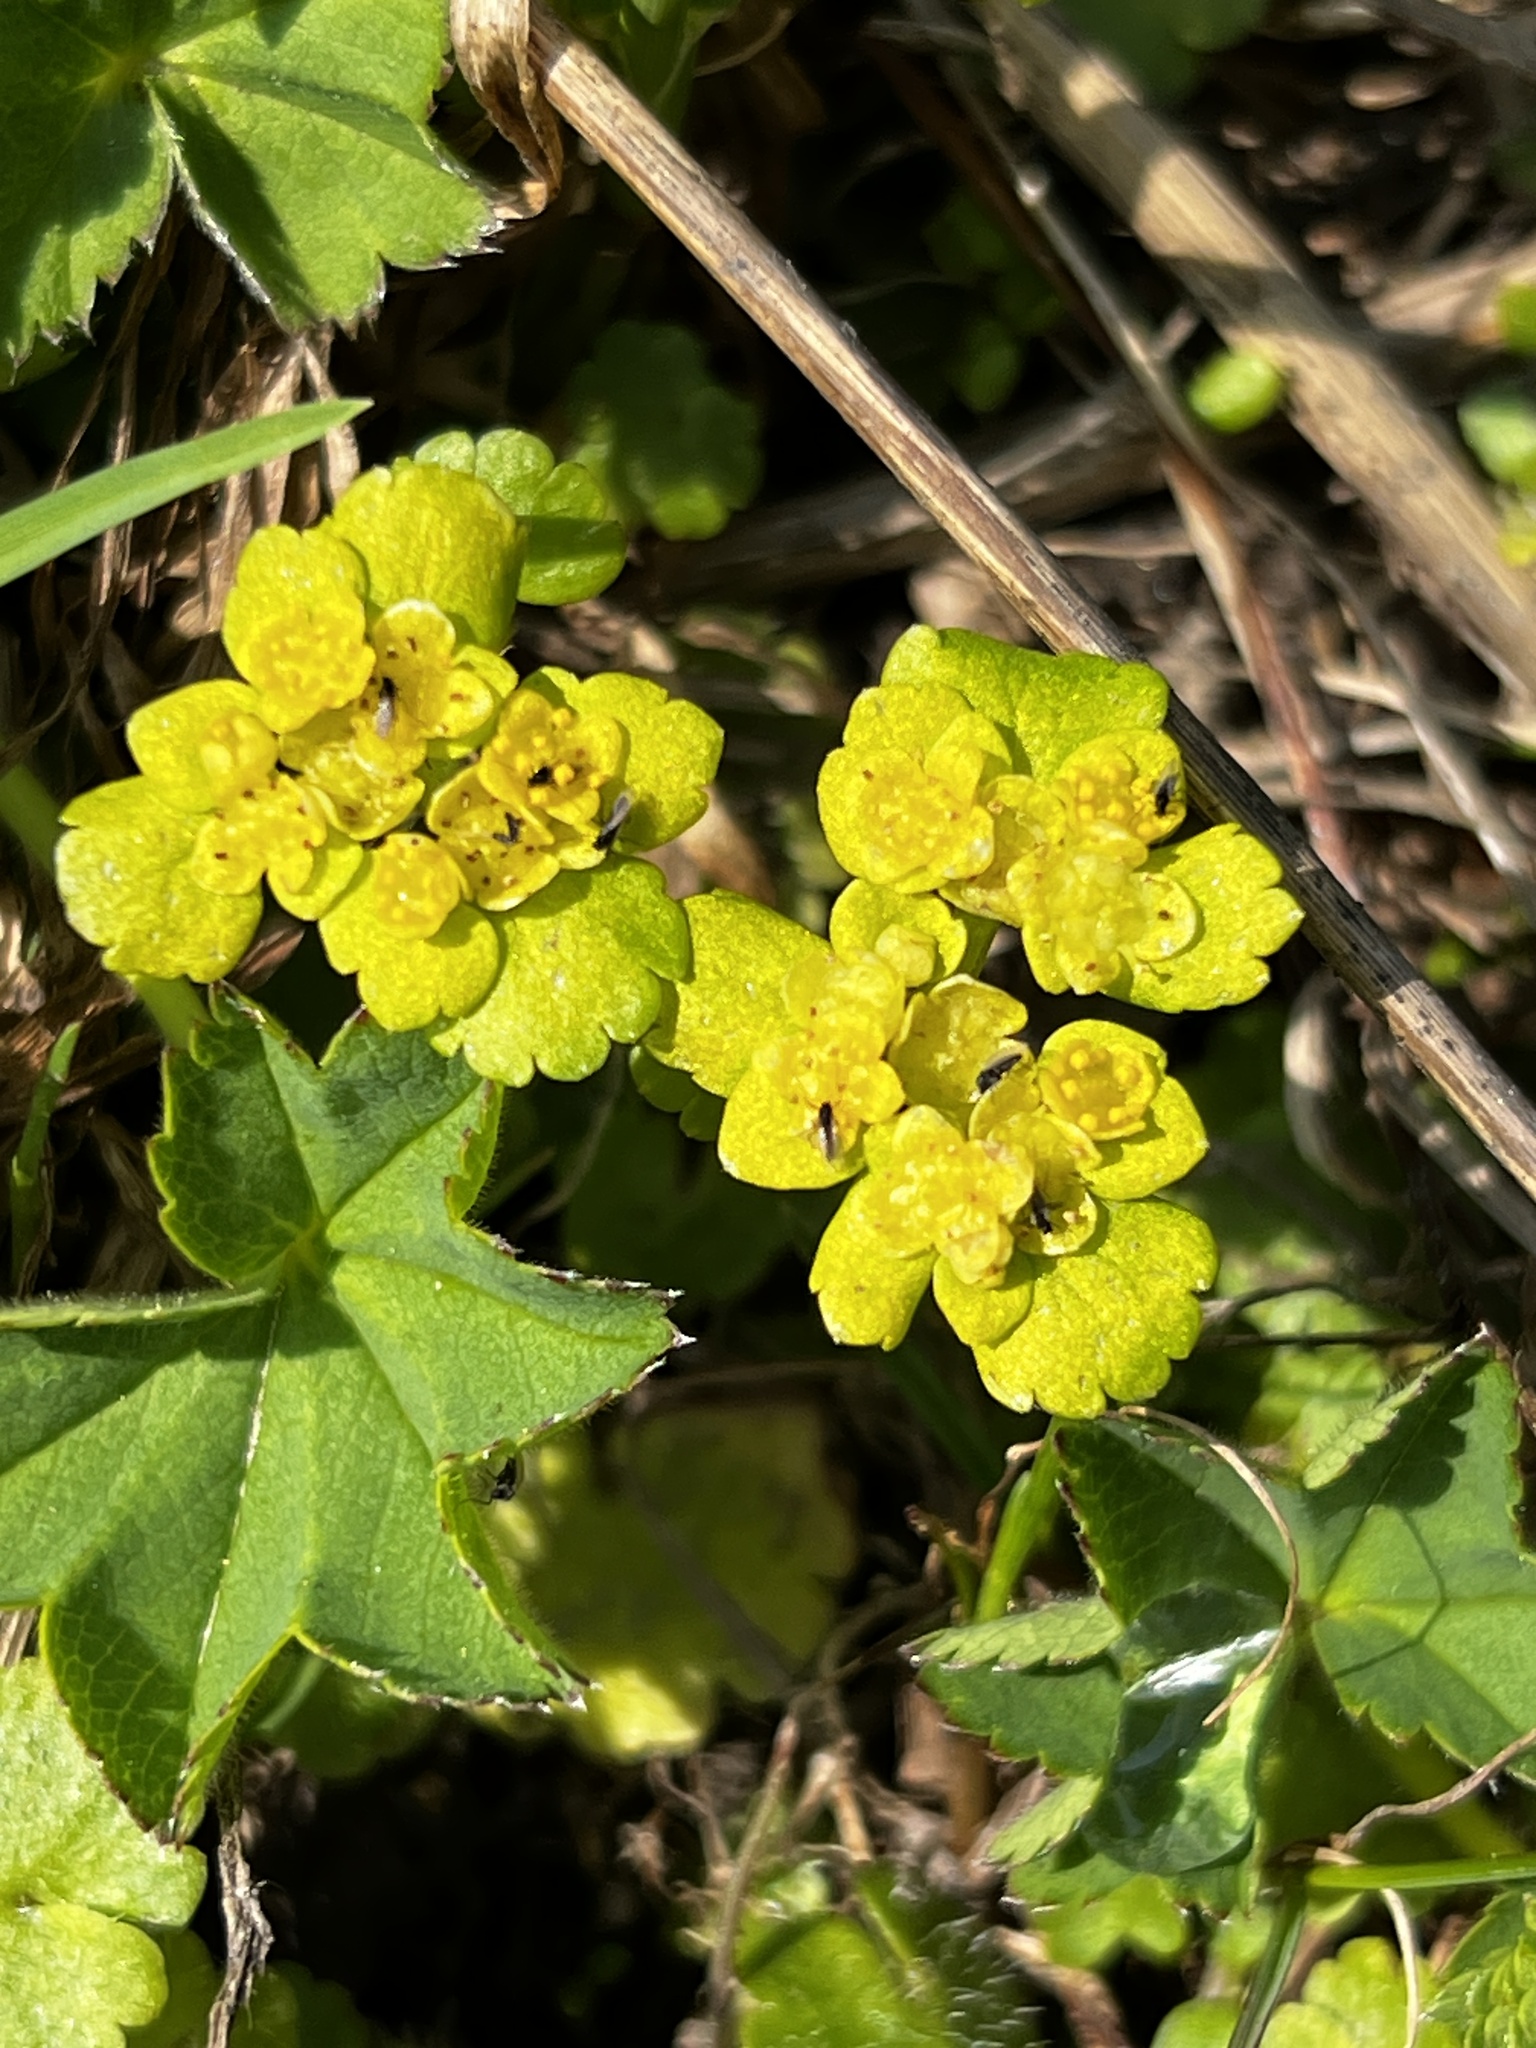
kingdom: Plantae
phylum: Tracheophyta
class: Magnoliopsida
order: Saxifragales
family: Saxifragaceae
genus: Chrysosplenium
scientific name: Chrysosplenium alternifolium
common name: Alternate-leaved golden-saxifrage
